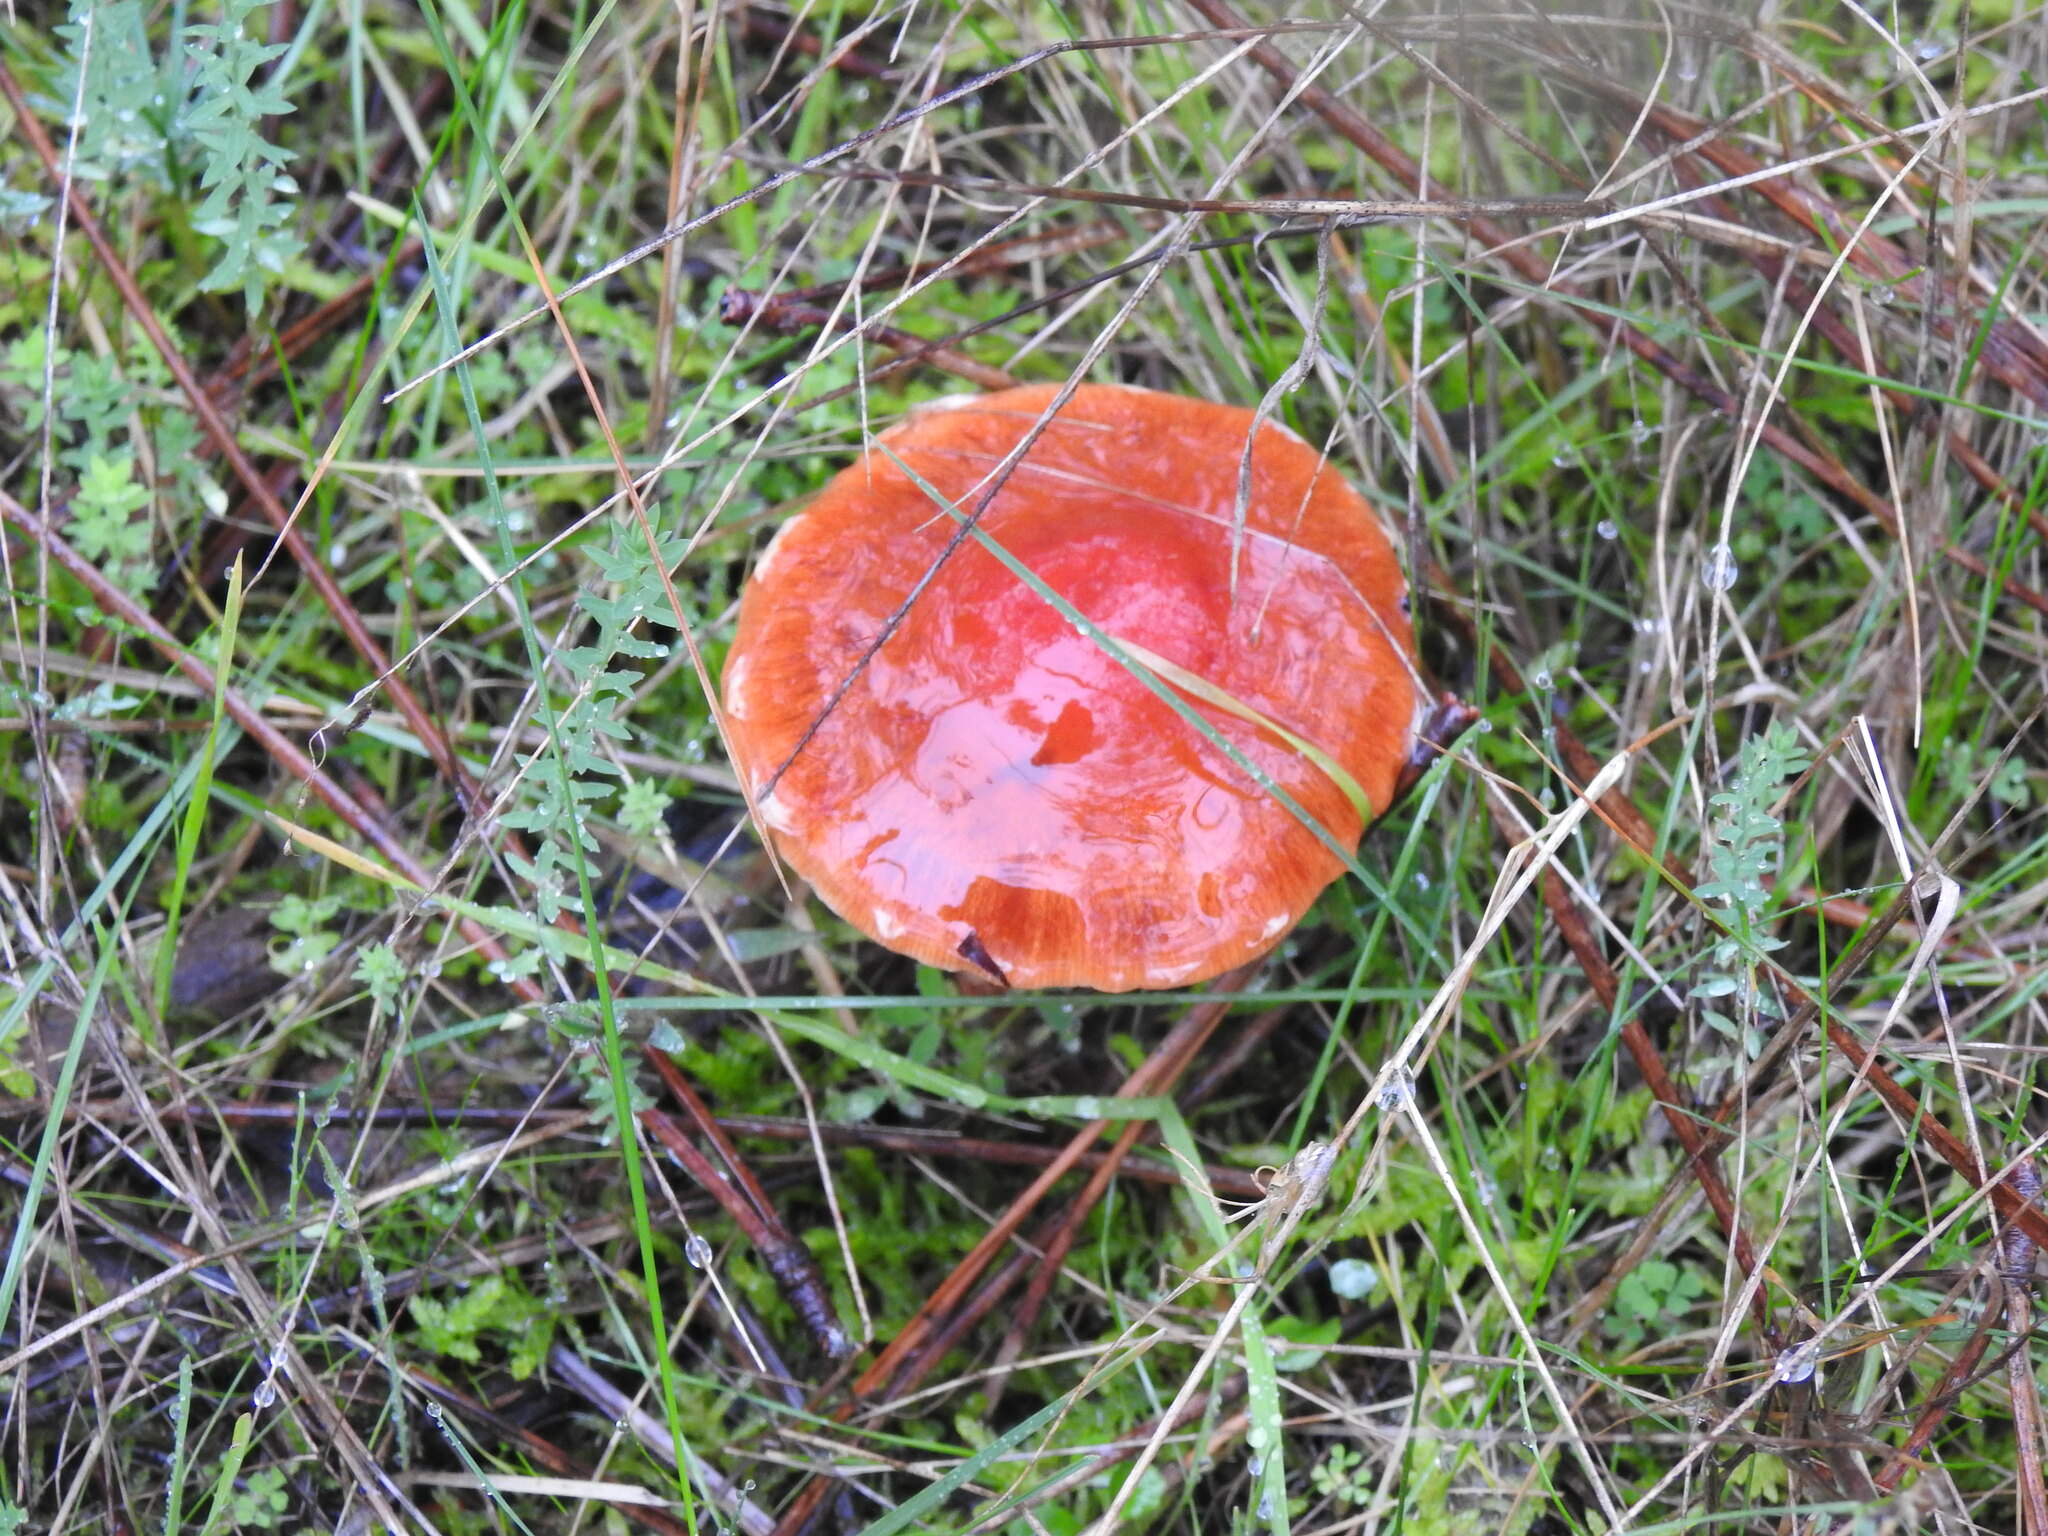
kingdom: Fungi
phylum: Basidiomycota
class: Agaricomycetes
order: Agaricales
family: Strophariaceae
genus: Leratiomyces
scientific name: Leratiomyces ceres
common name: Redlead roundhead
